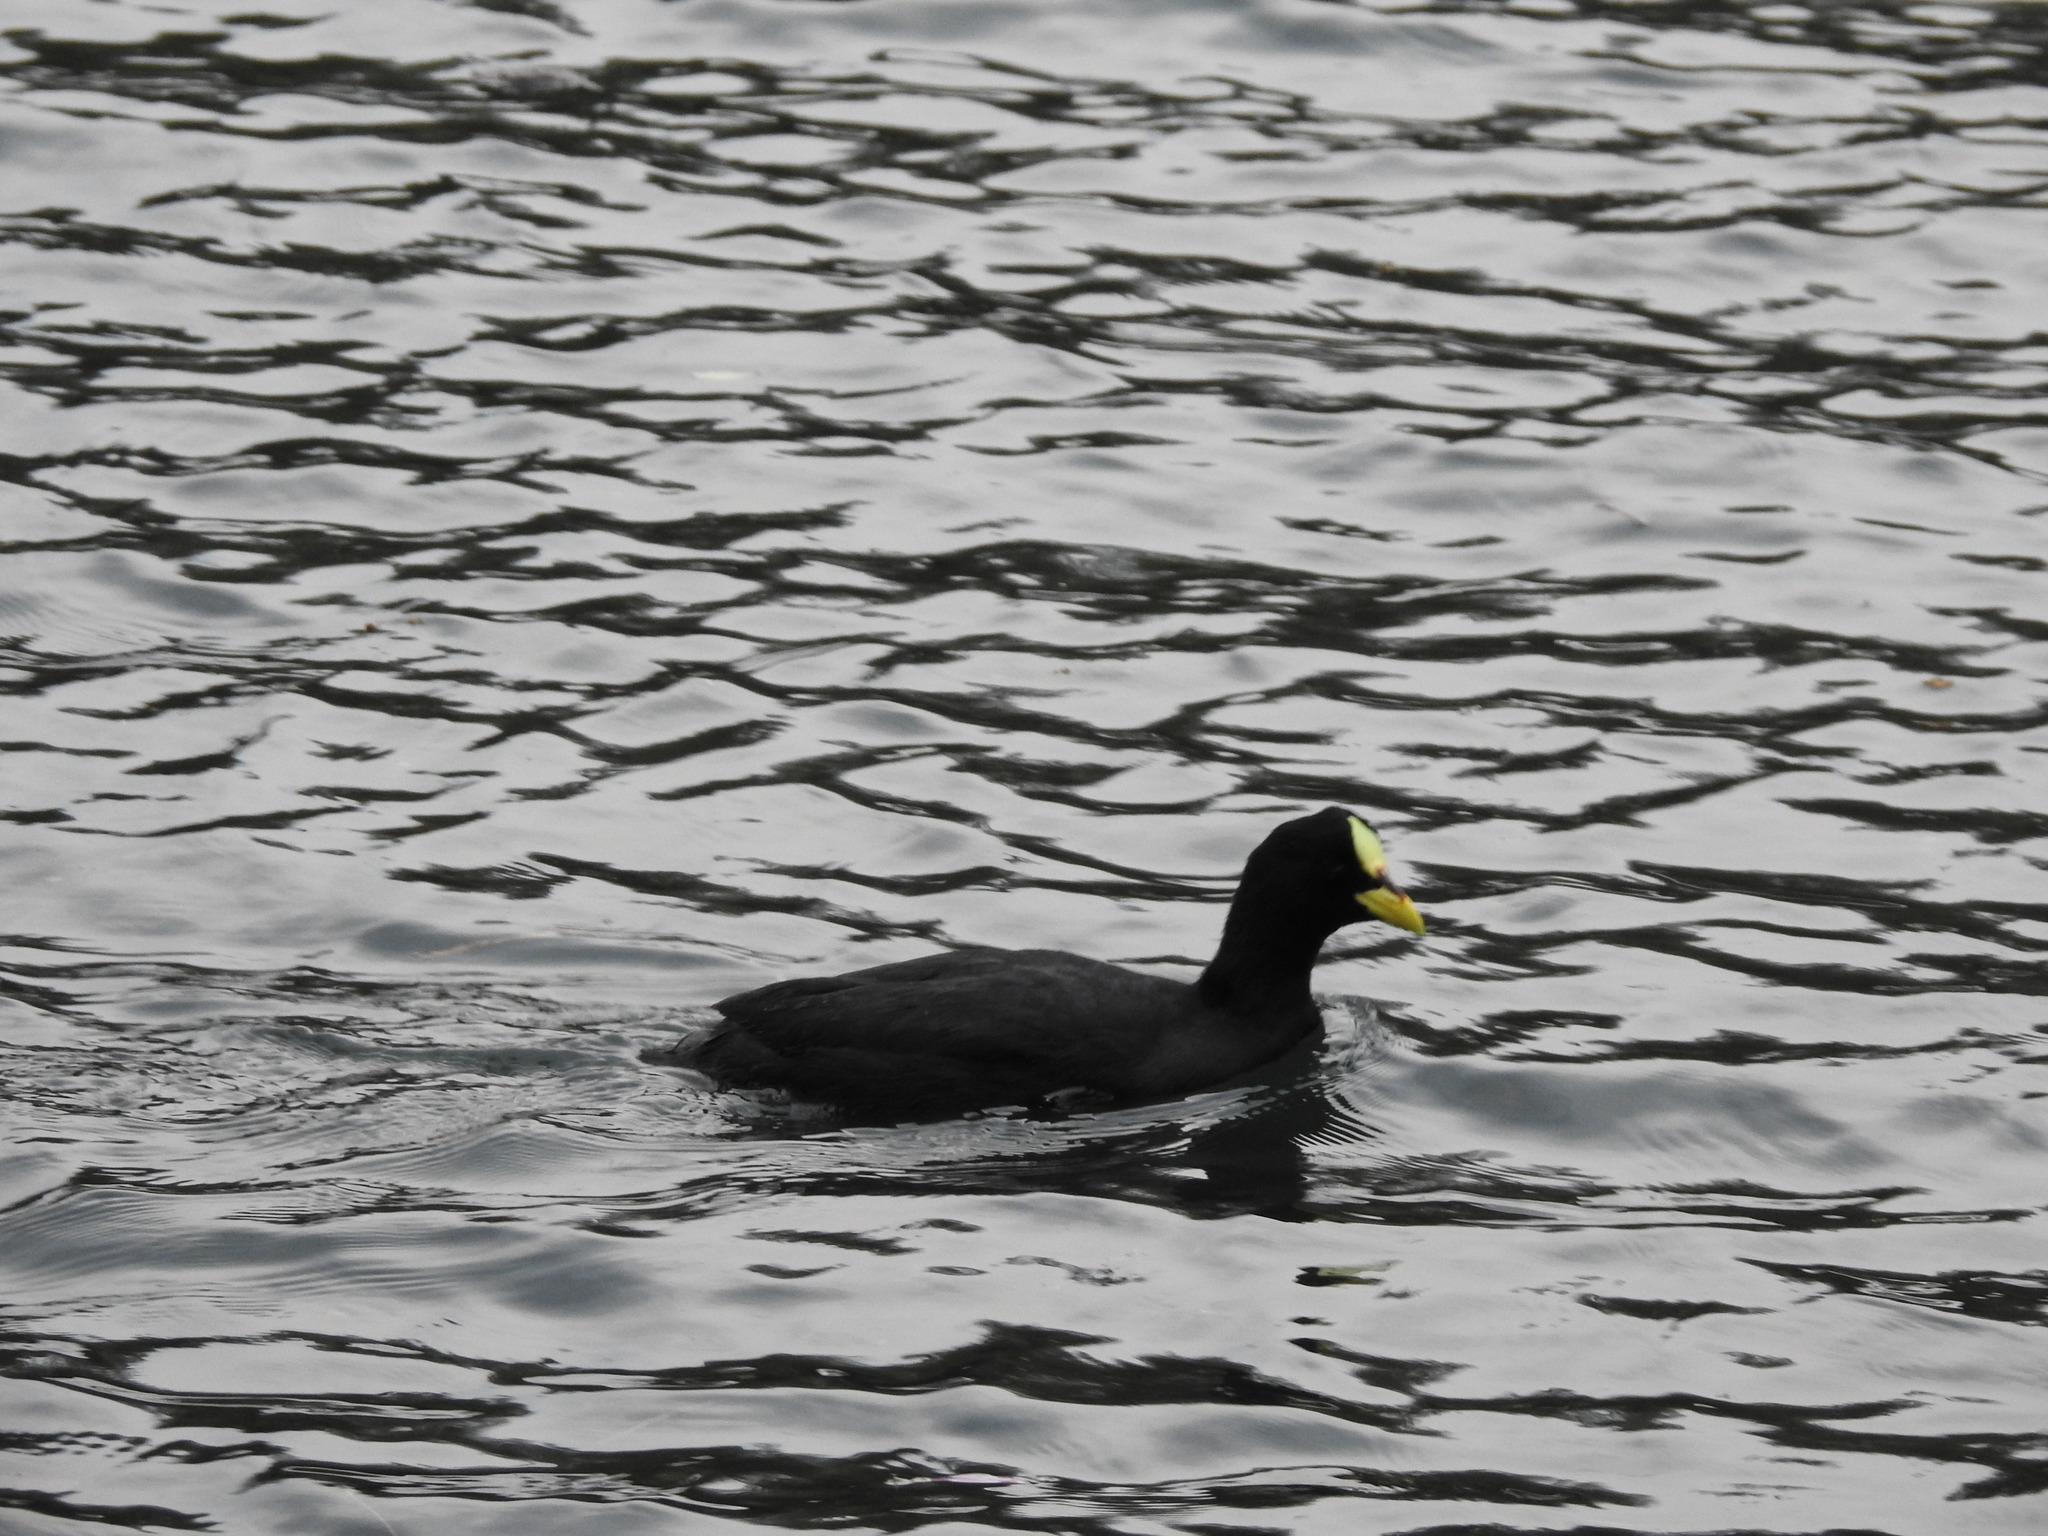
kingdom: Animalia
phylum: Chordata
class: Aves
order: Gruiformes
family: Rallidae
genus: Fulica
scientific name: Fulica armillata
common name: Red-gartered coot
